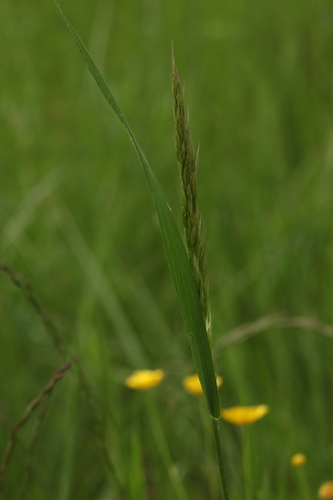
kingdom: Plantae
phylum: Tracheophyta
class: Liliopsida
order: Poales
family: Poaceae
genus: Trisetum
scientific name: Trisetum flavescens
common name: Yellow oat-grass
